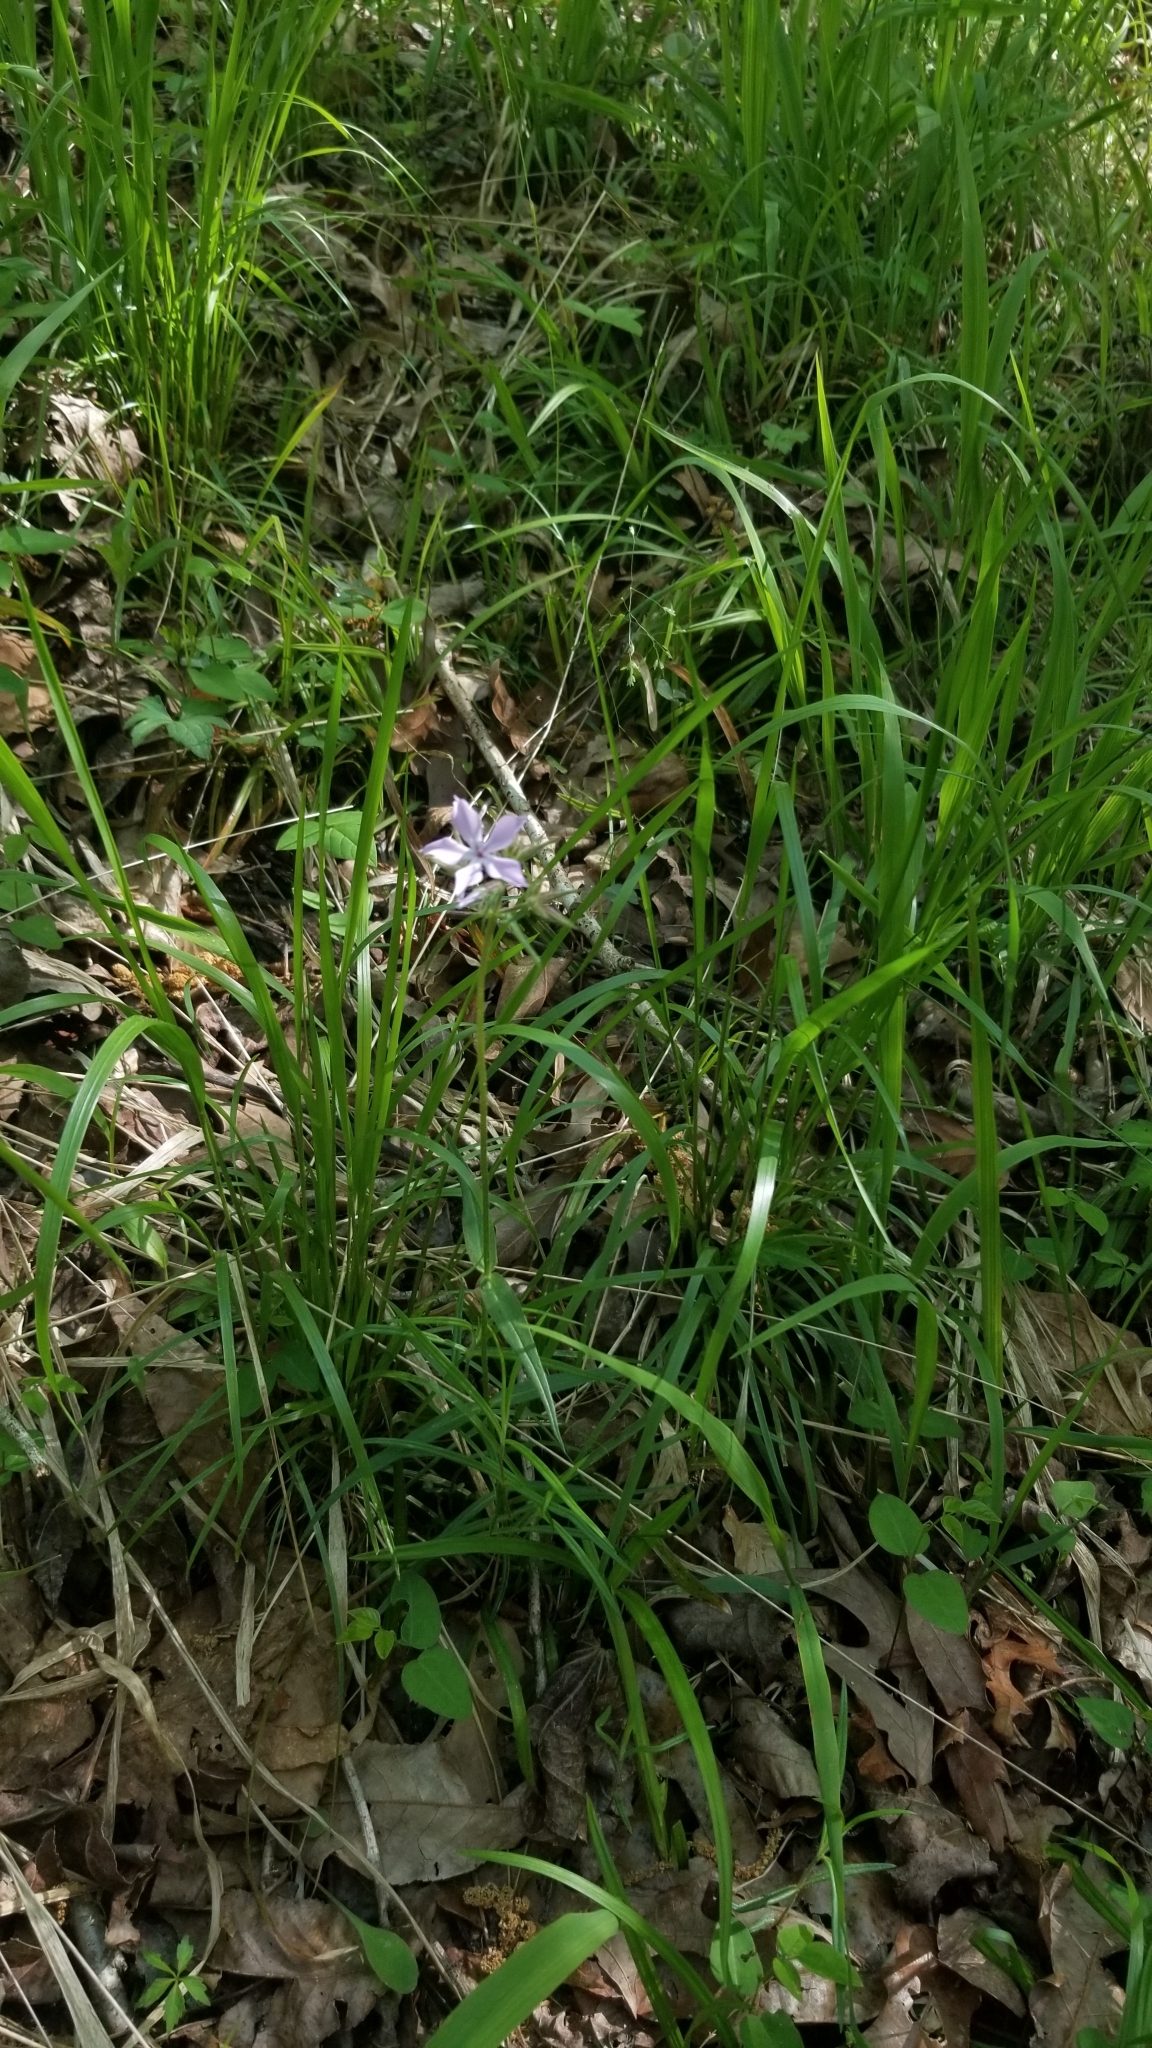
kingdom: Plantae
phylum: Tracheophyta
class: Magnoliopsida
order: Ericales
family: Polemoniaceae
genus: Phlox
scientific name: Phlox pilosa
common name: Prairie phlox
